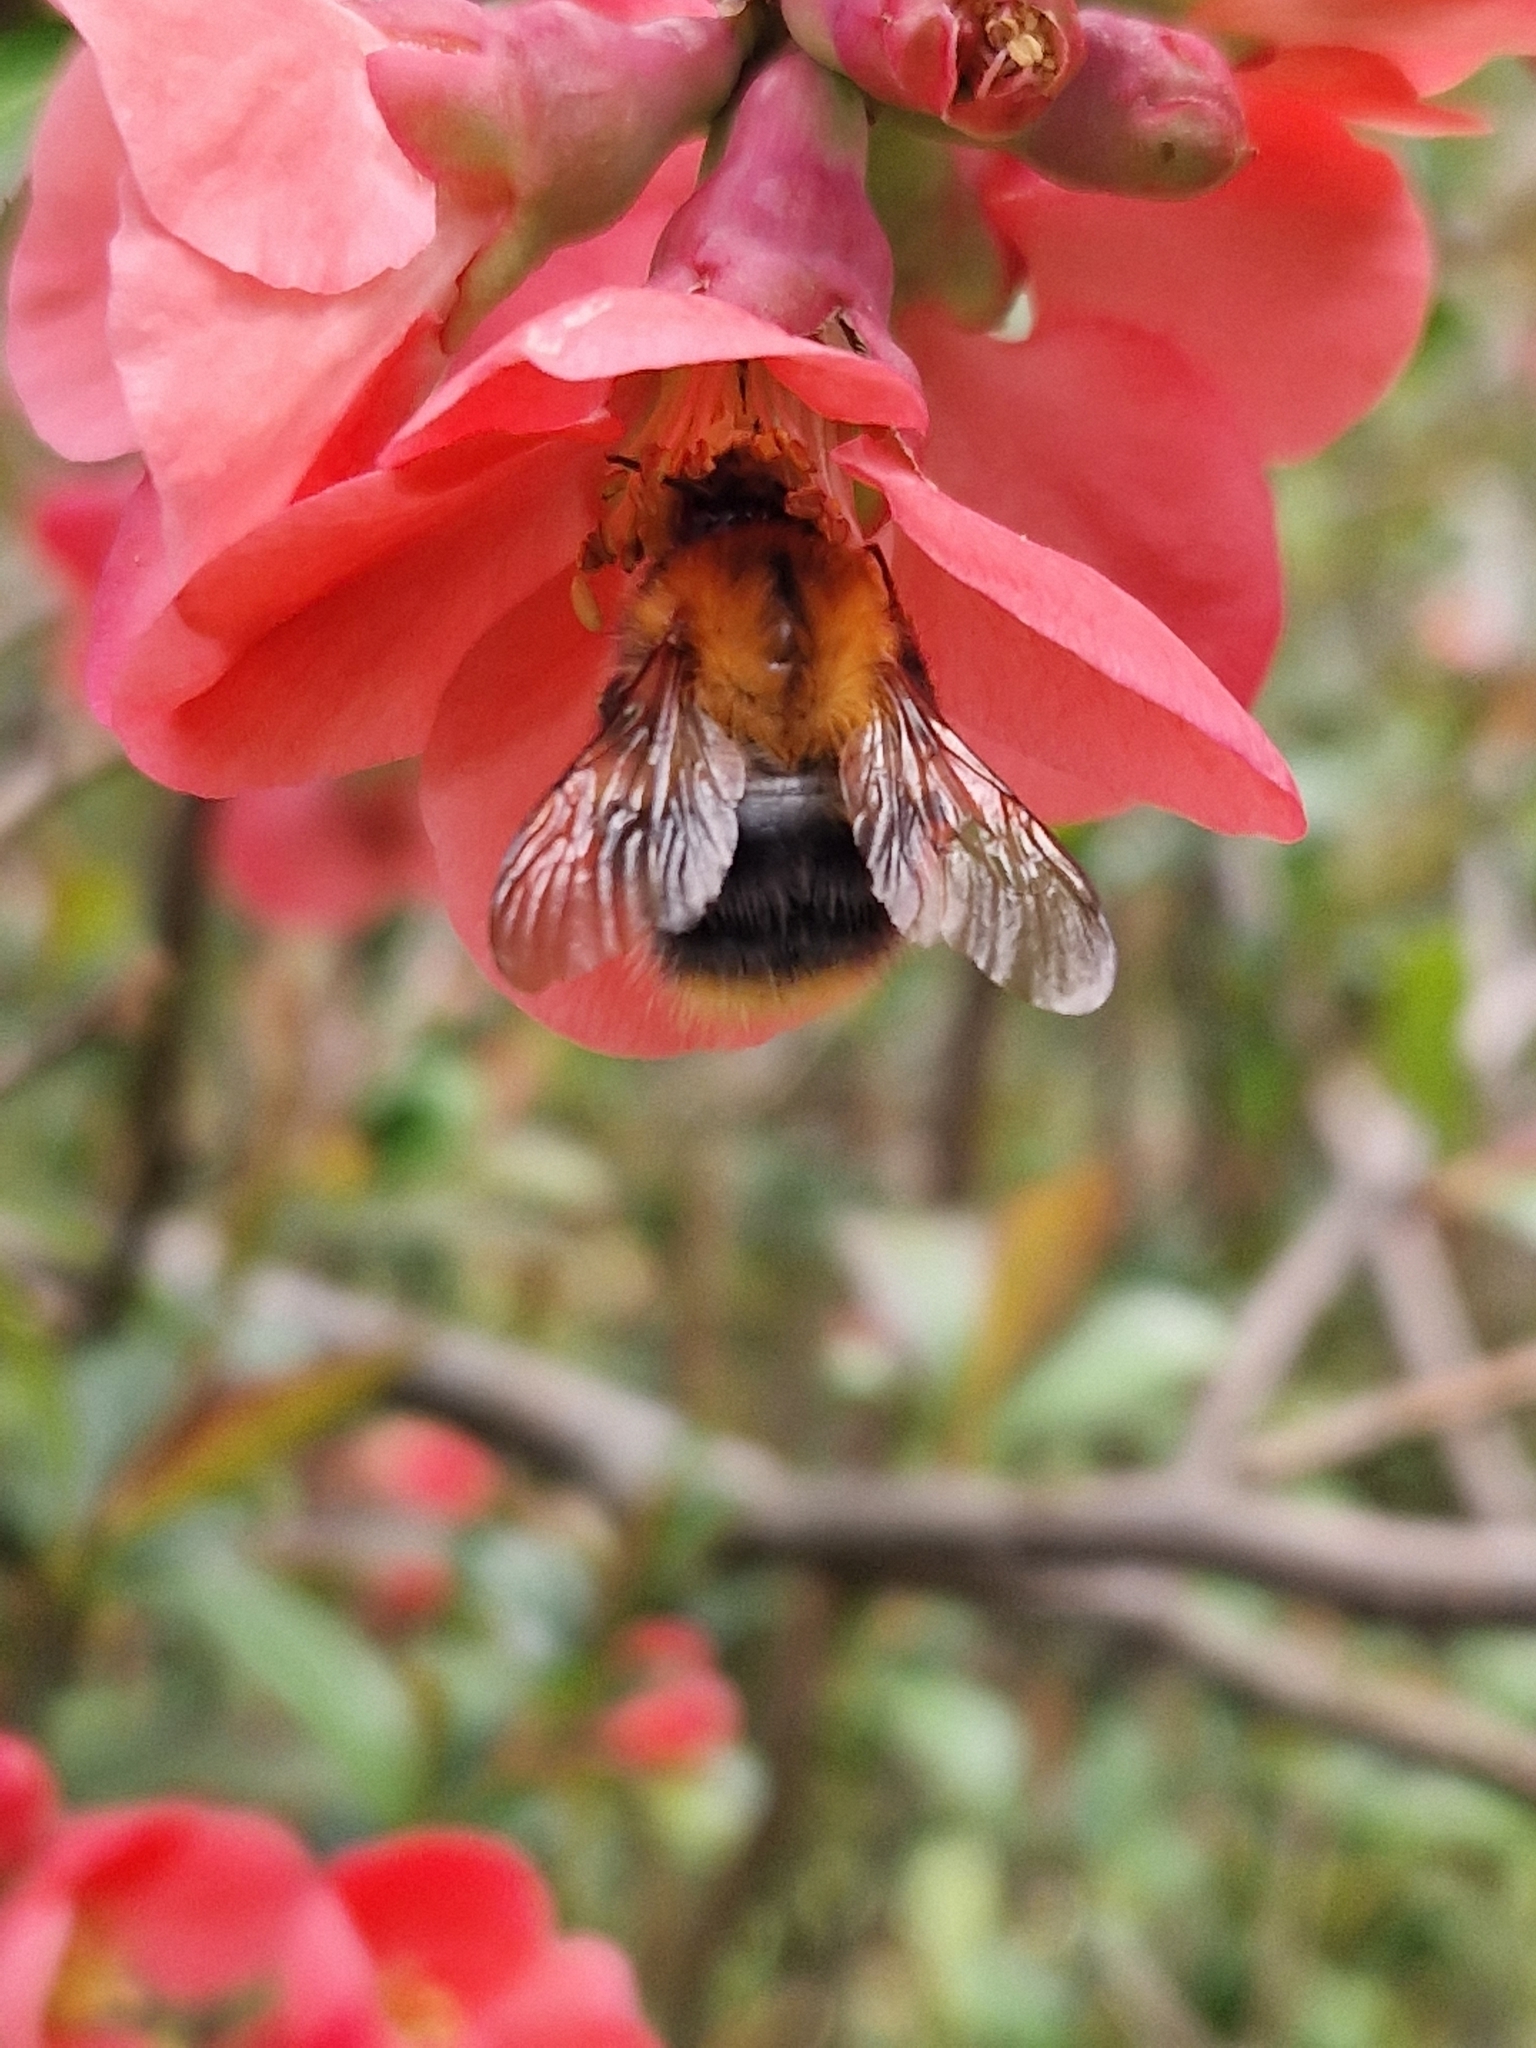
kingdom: Animalia
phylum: Arthropoda
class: Insecta
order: Hymenoptera
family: Apidae
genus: Bombus
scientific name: Bombus pascuorum
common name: Common carder bee
